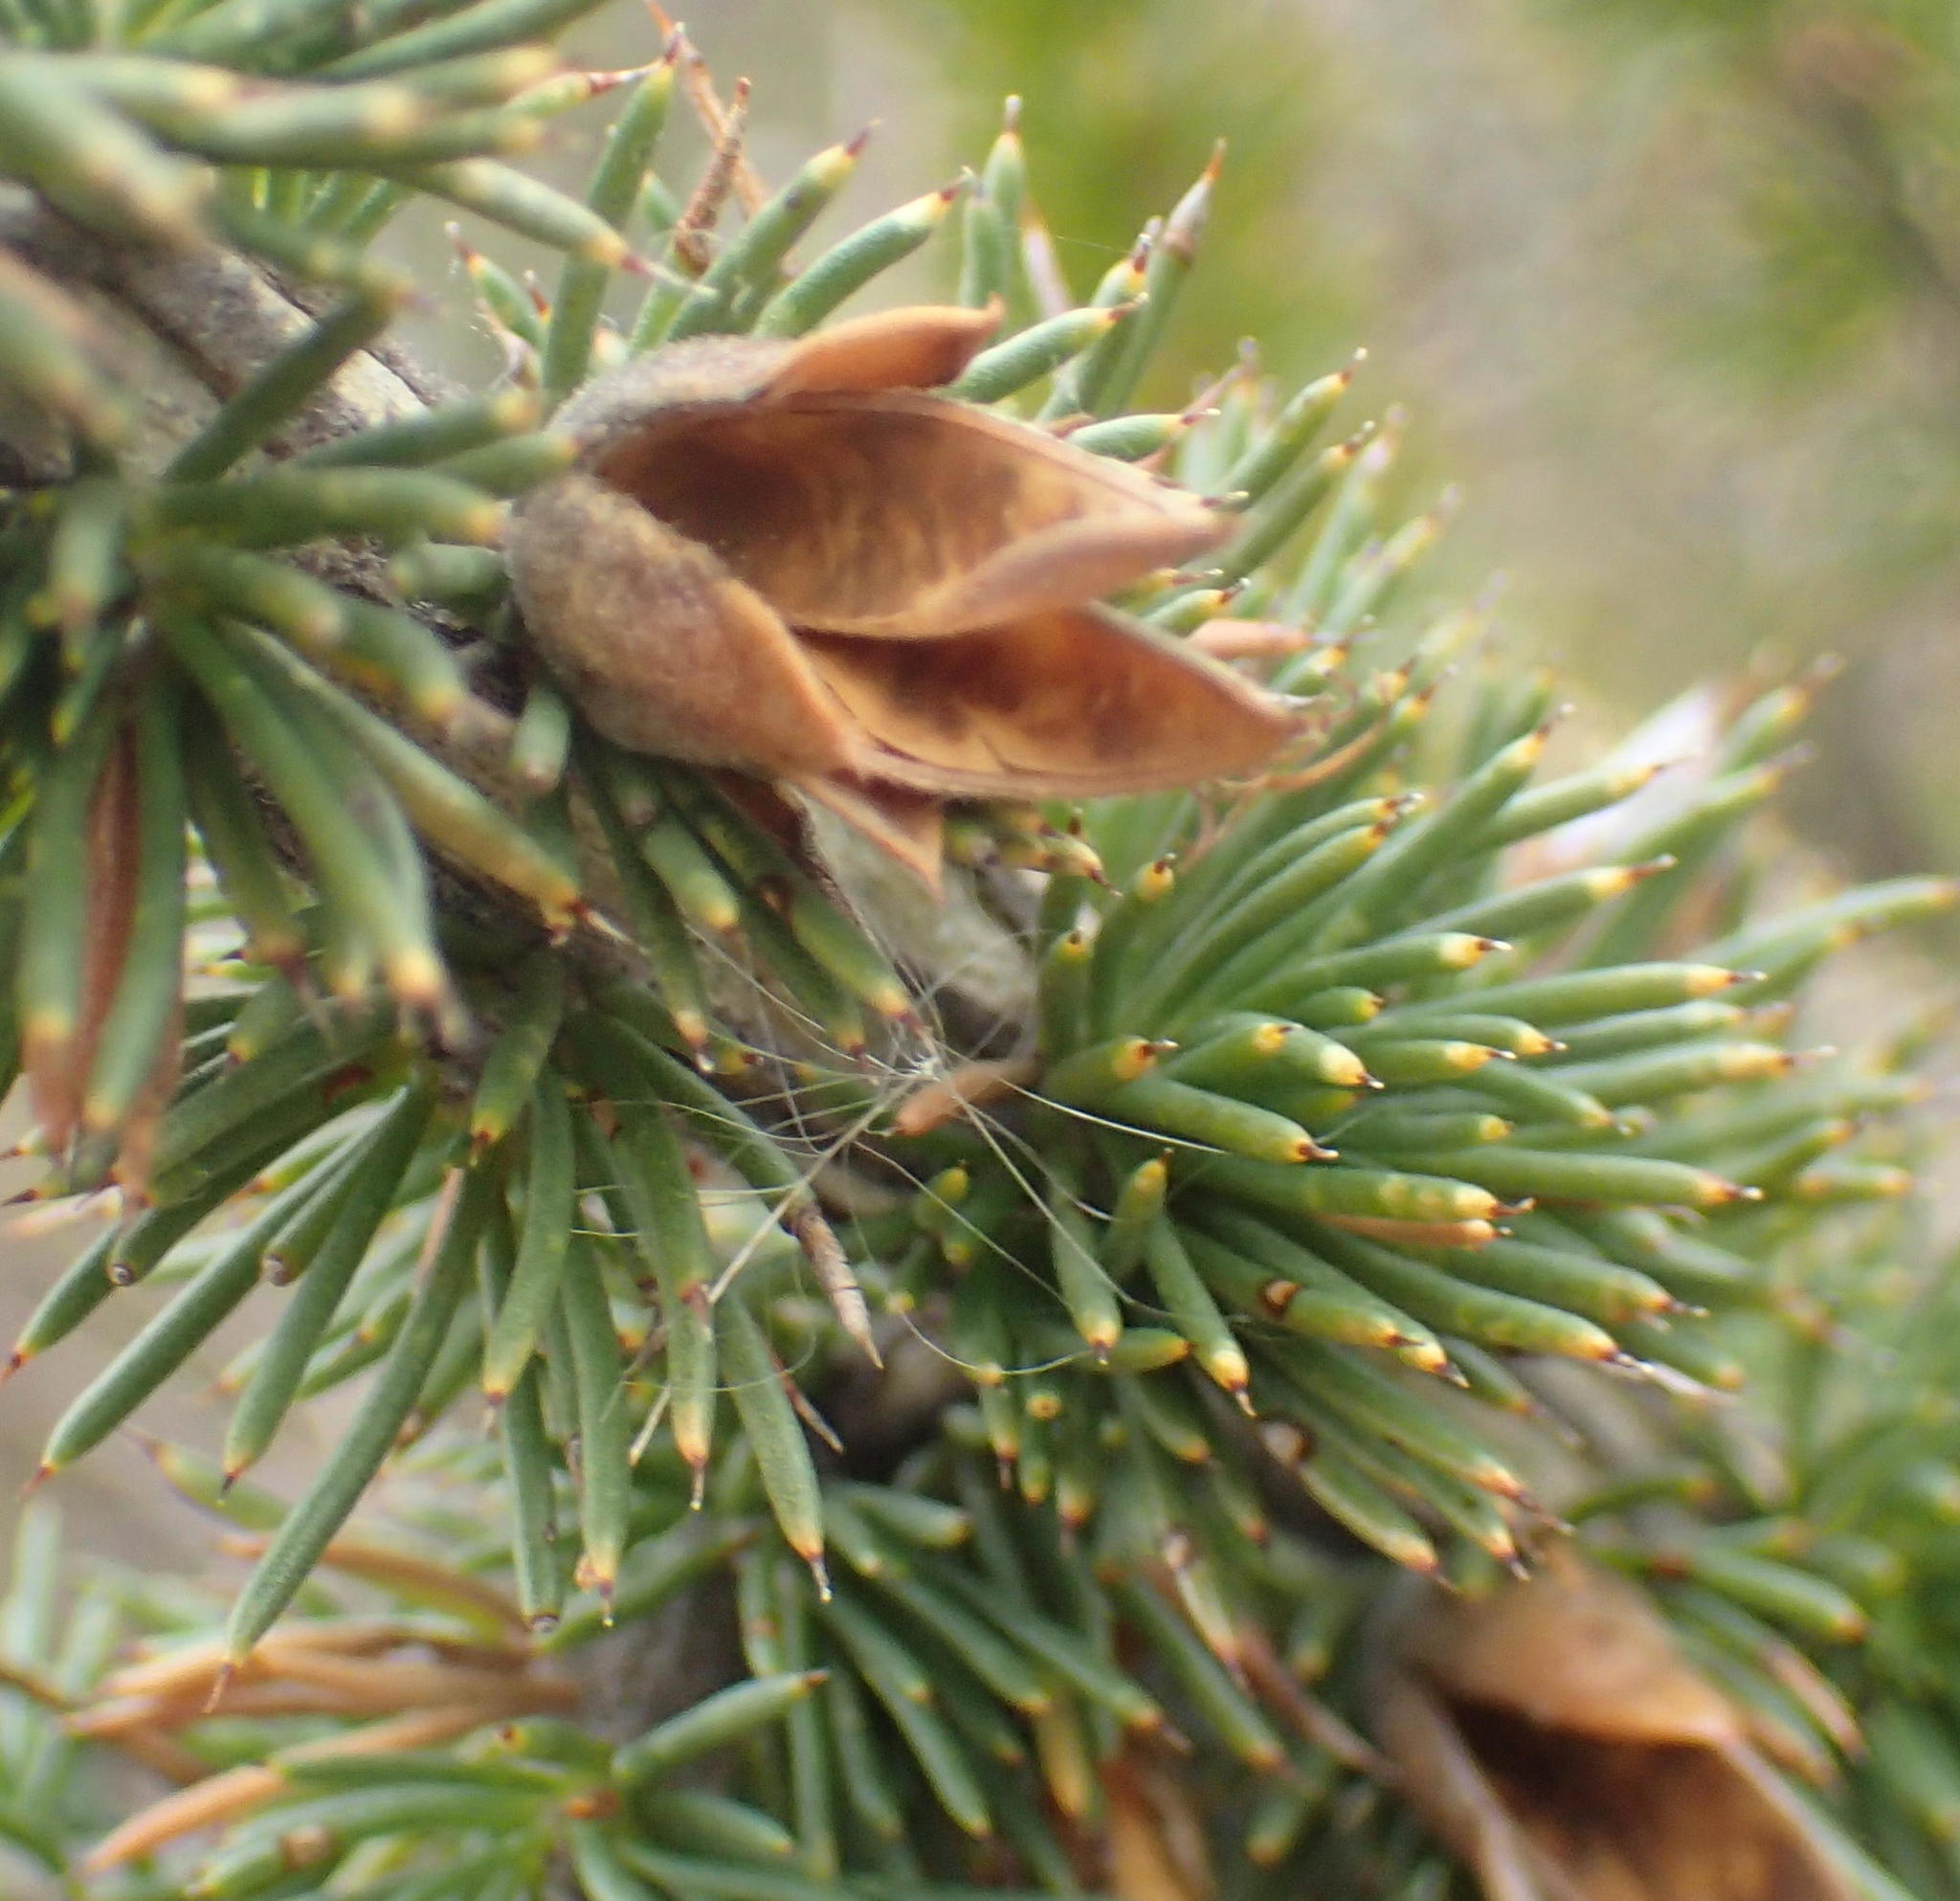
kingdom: Plantae
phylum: Tracheophyta
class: Magnoliopsida
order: Fabales
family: Fabaceae
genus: Aspalathus
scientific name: Aspalathus sceptrumaureum
